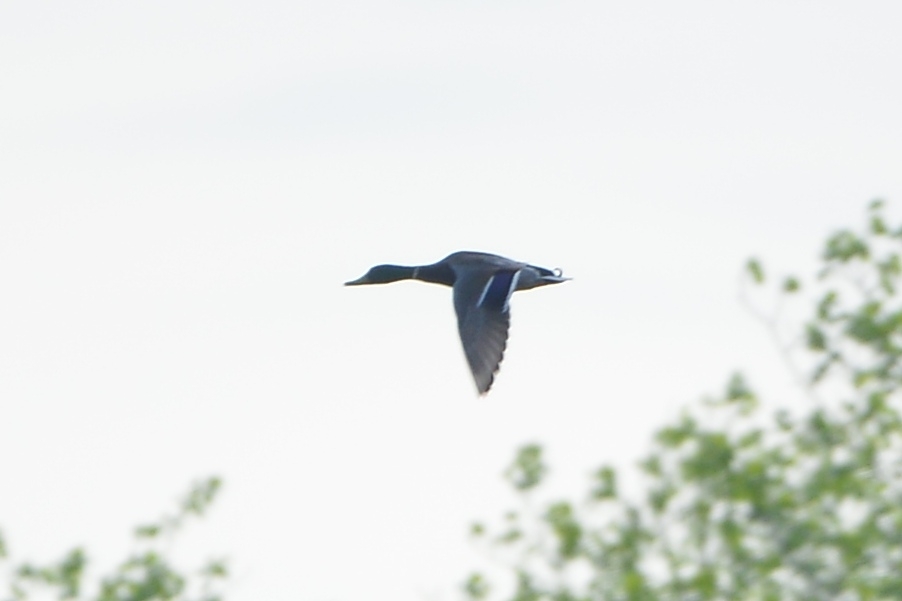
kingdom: Animalia
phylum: Chordata
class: Aves
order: Anseriformes
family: Anatidae
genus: Anas
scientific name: Anas platyrhynchos
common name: Mallard
